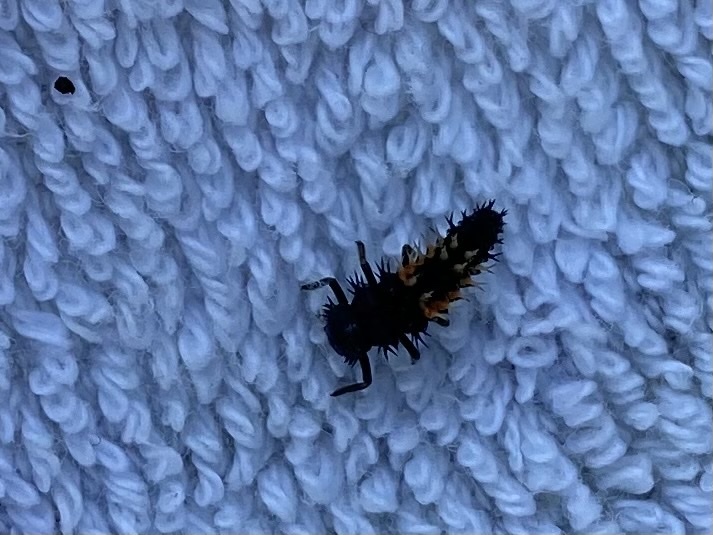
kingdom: Animalia
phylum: Arthropoda
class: Insecta
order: Coleoptera
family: Coccinellidae
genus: Harmonia
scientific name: Harmonia axyridis
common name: Harlequin ladybird
